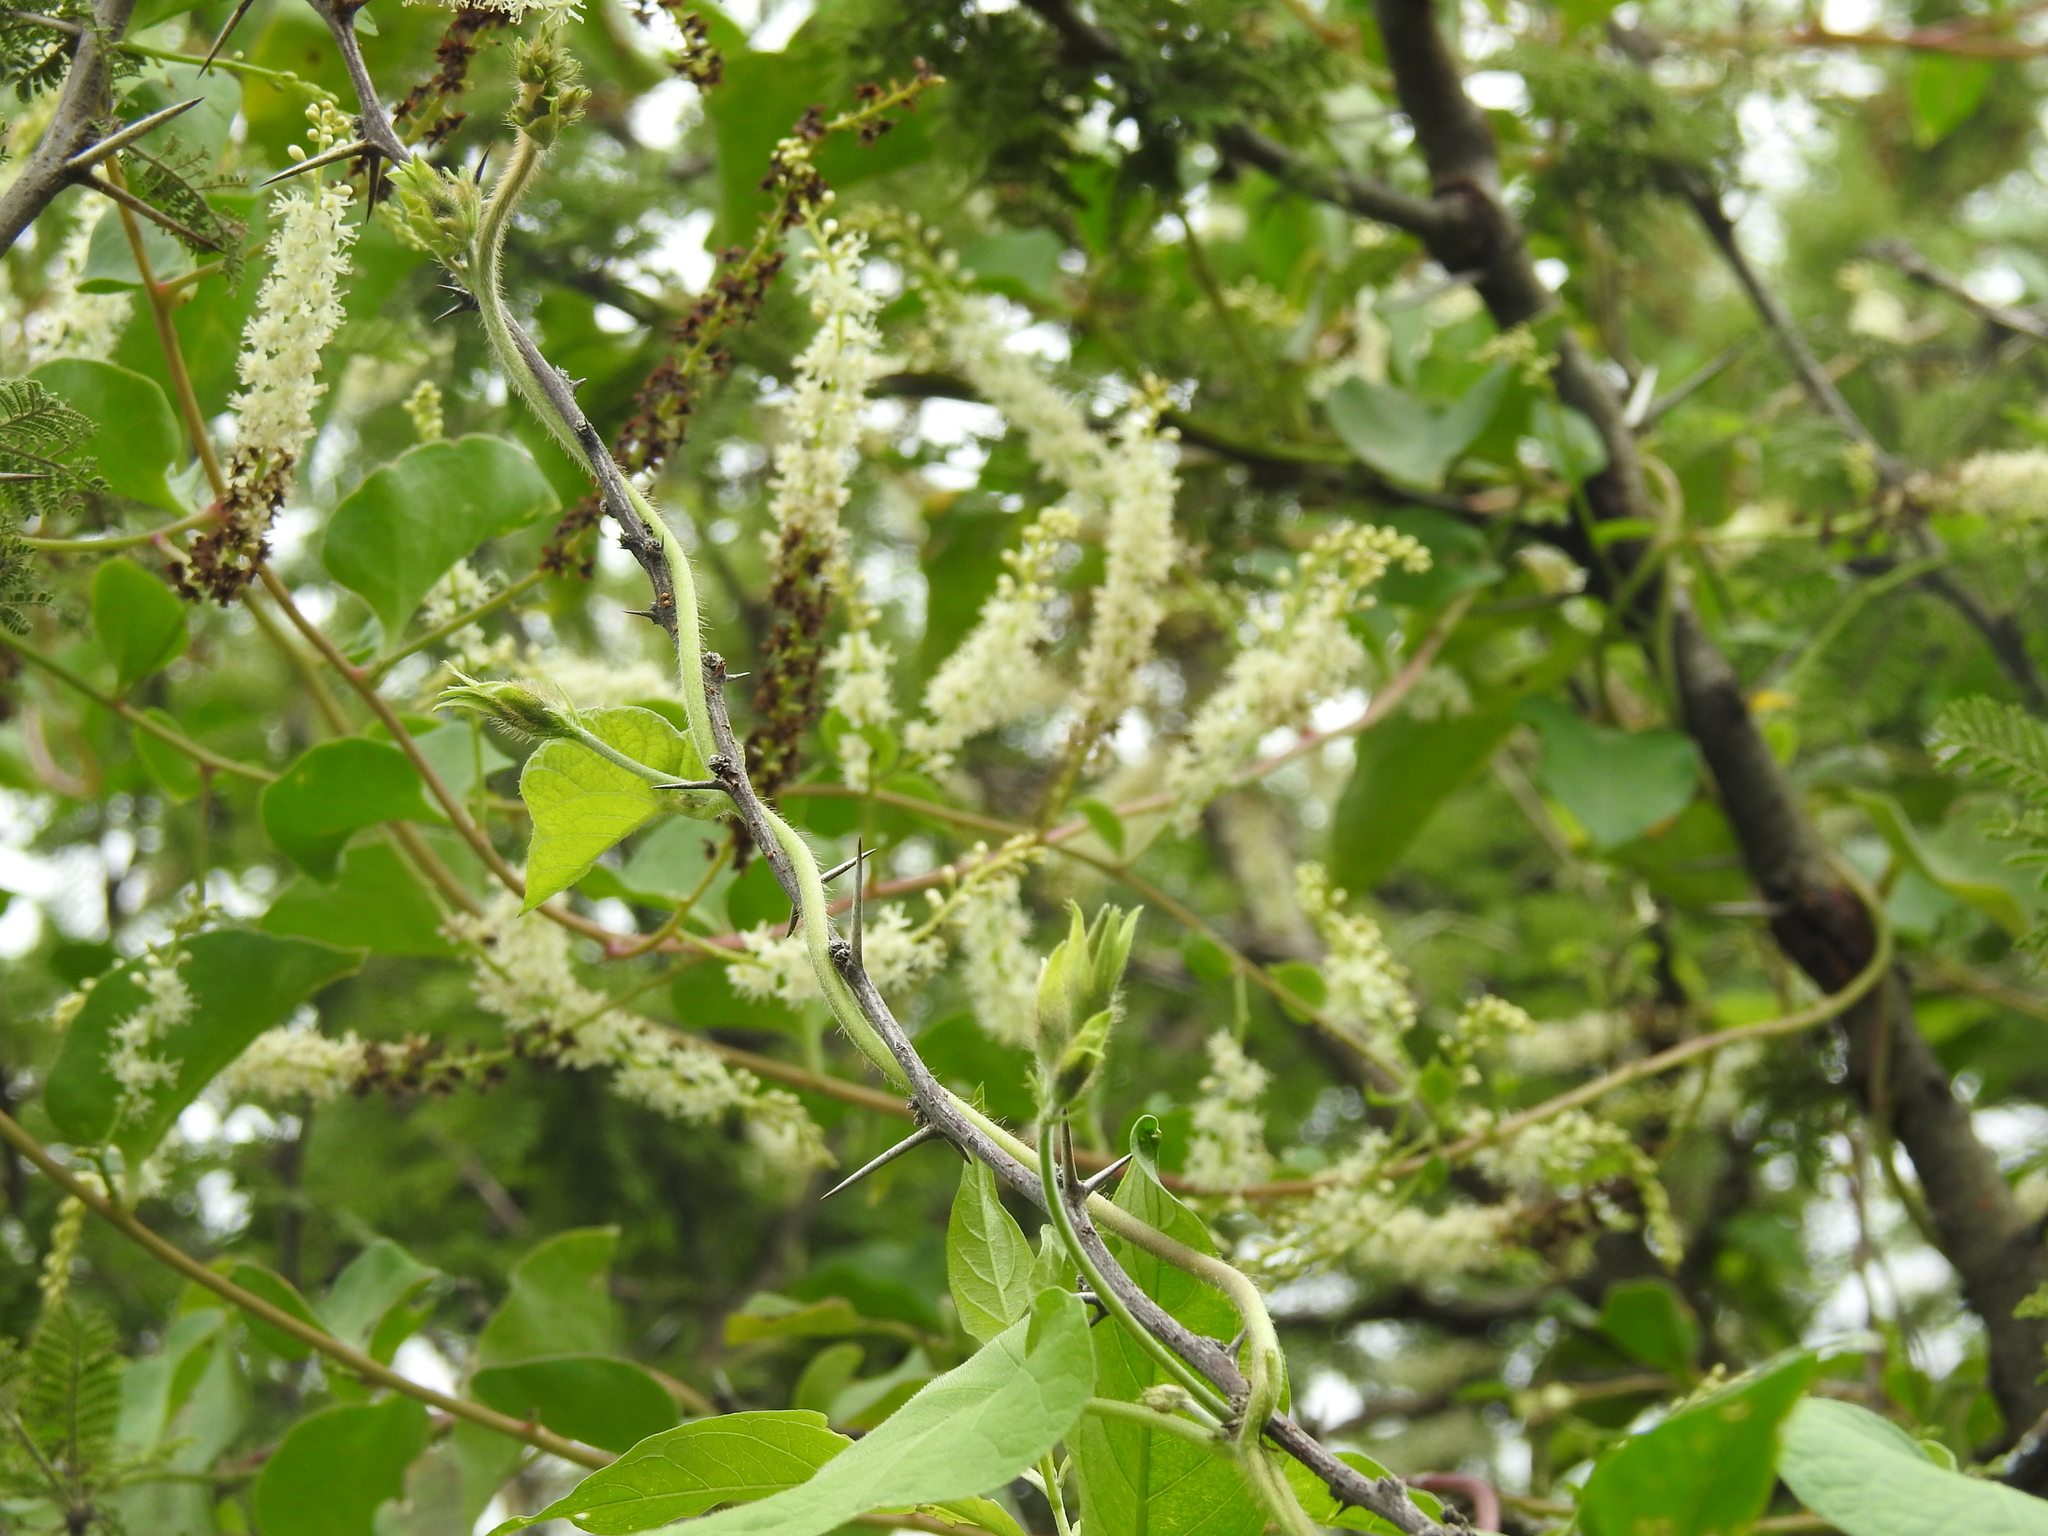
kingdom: Plantae
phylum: Tracheophyta
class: Magnoliopsida
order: Caryophyllales
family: Basellaceae
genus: Anredera
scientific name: Anredera cordifolia
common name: Heartleaf madeiravine
